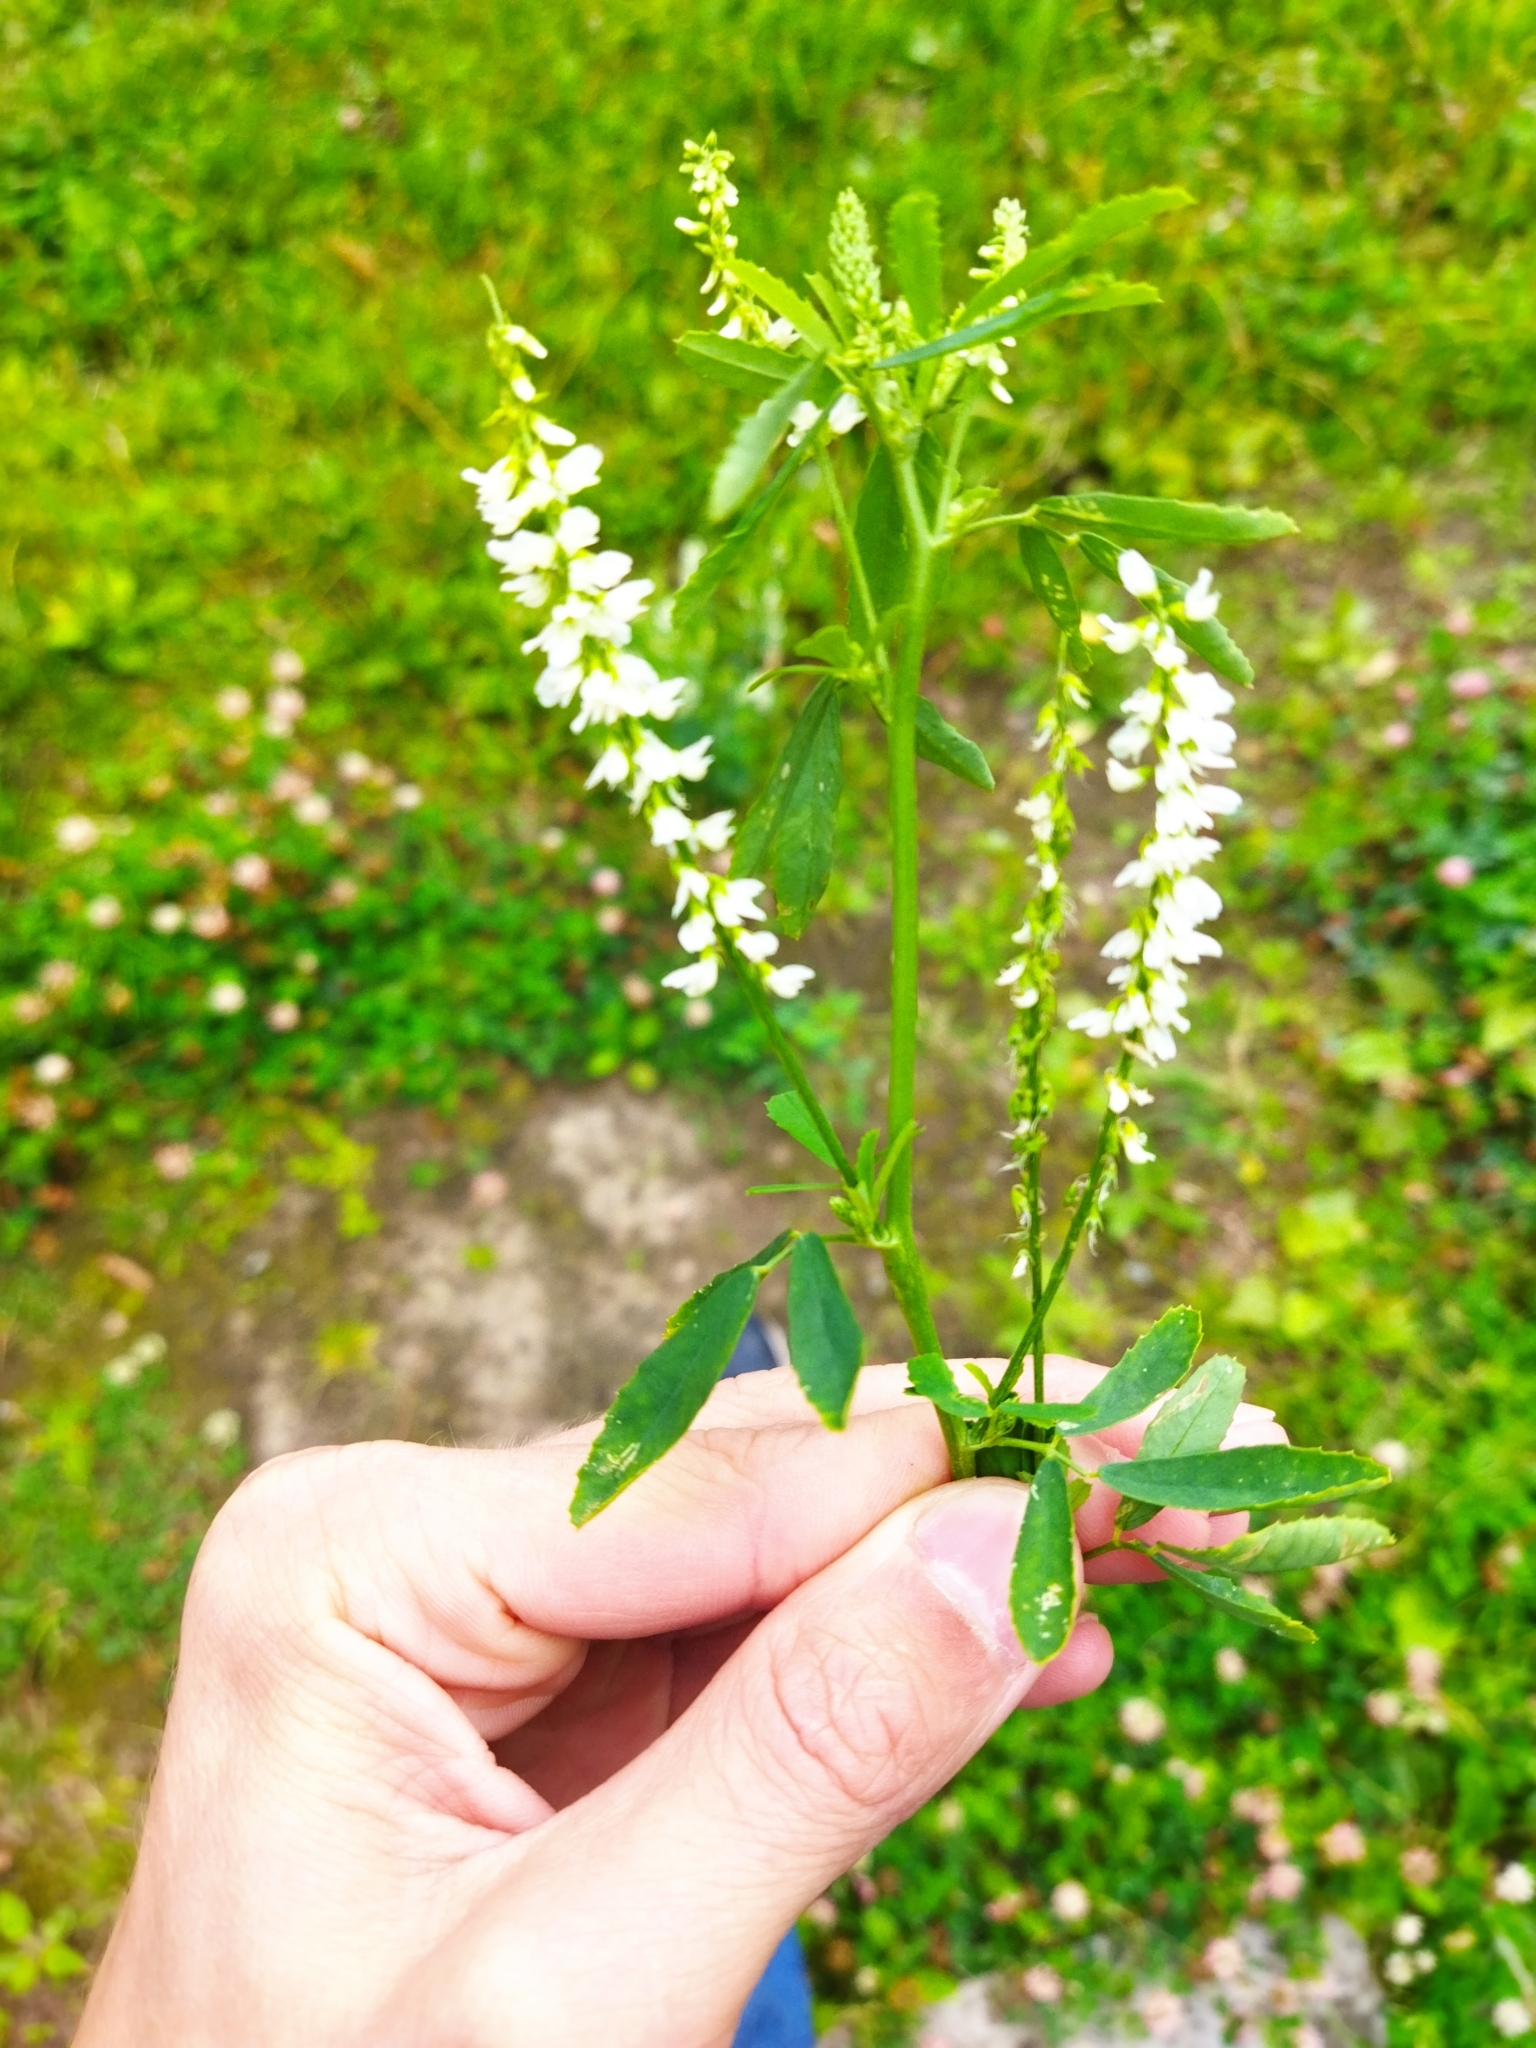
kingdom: Plantae
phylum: Tracheophyta
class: Magnoliopsida
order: Fabales
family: Fabaceae
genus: Melilotus
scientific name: Melilotus albus
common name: White melilot
